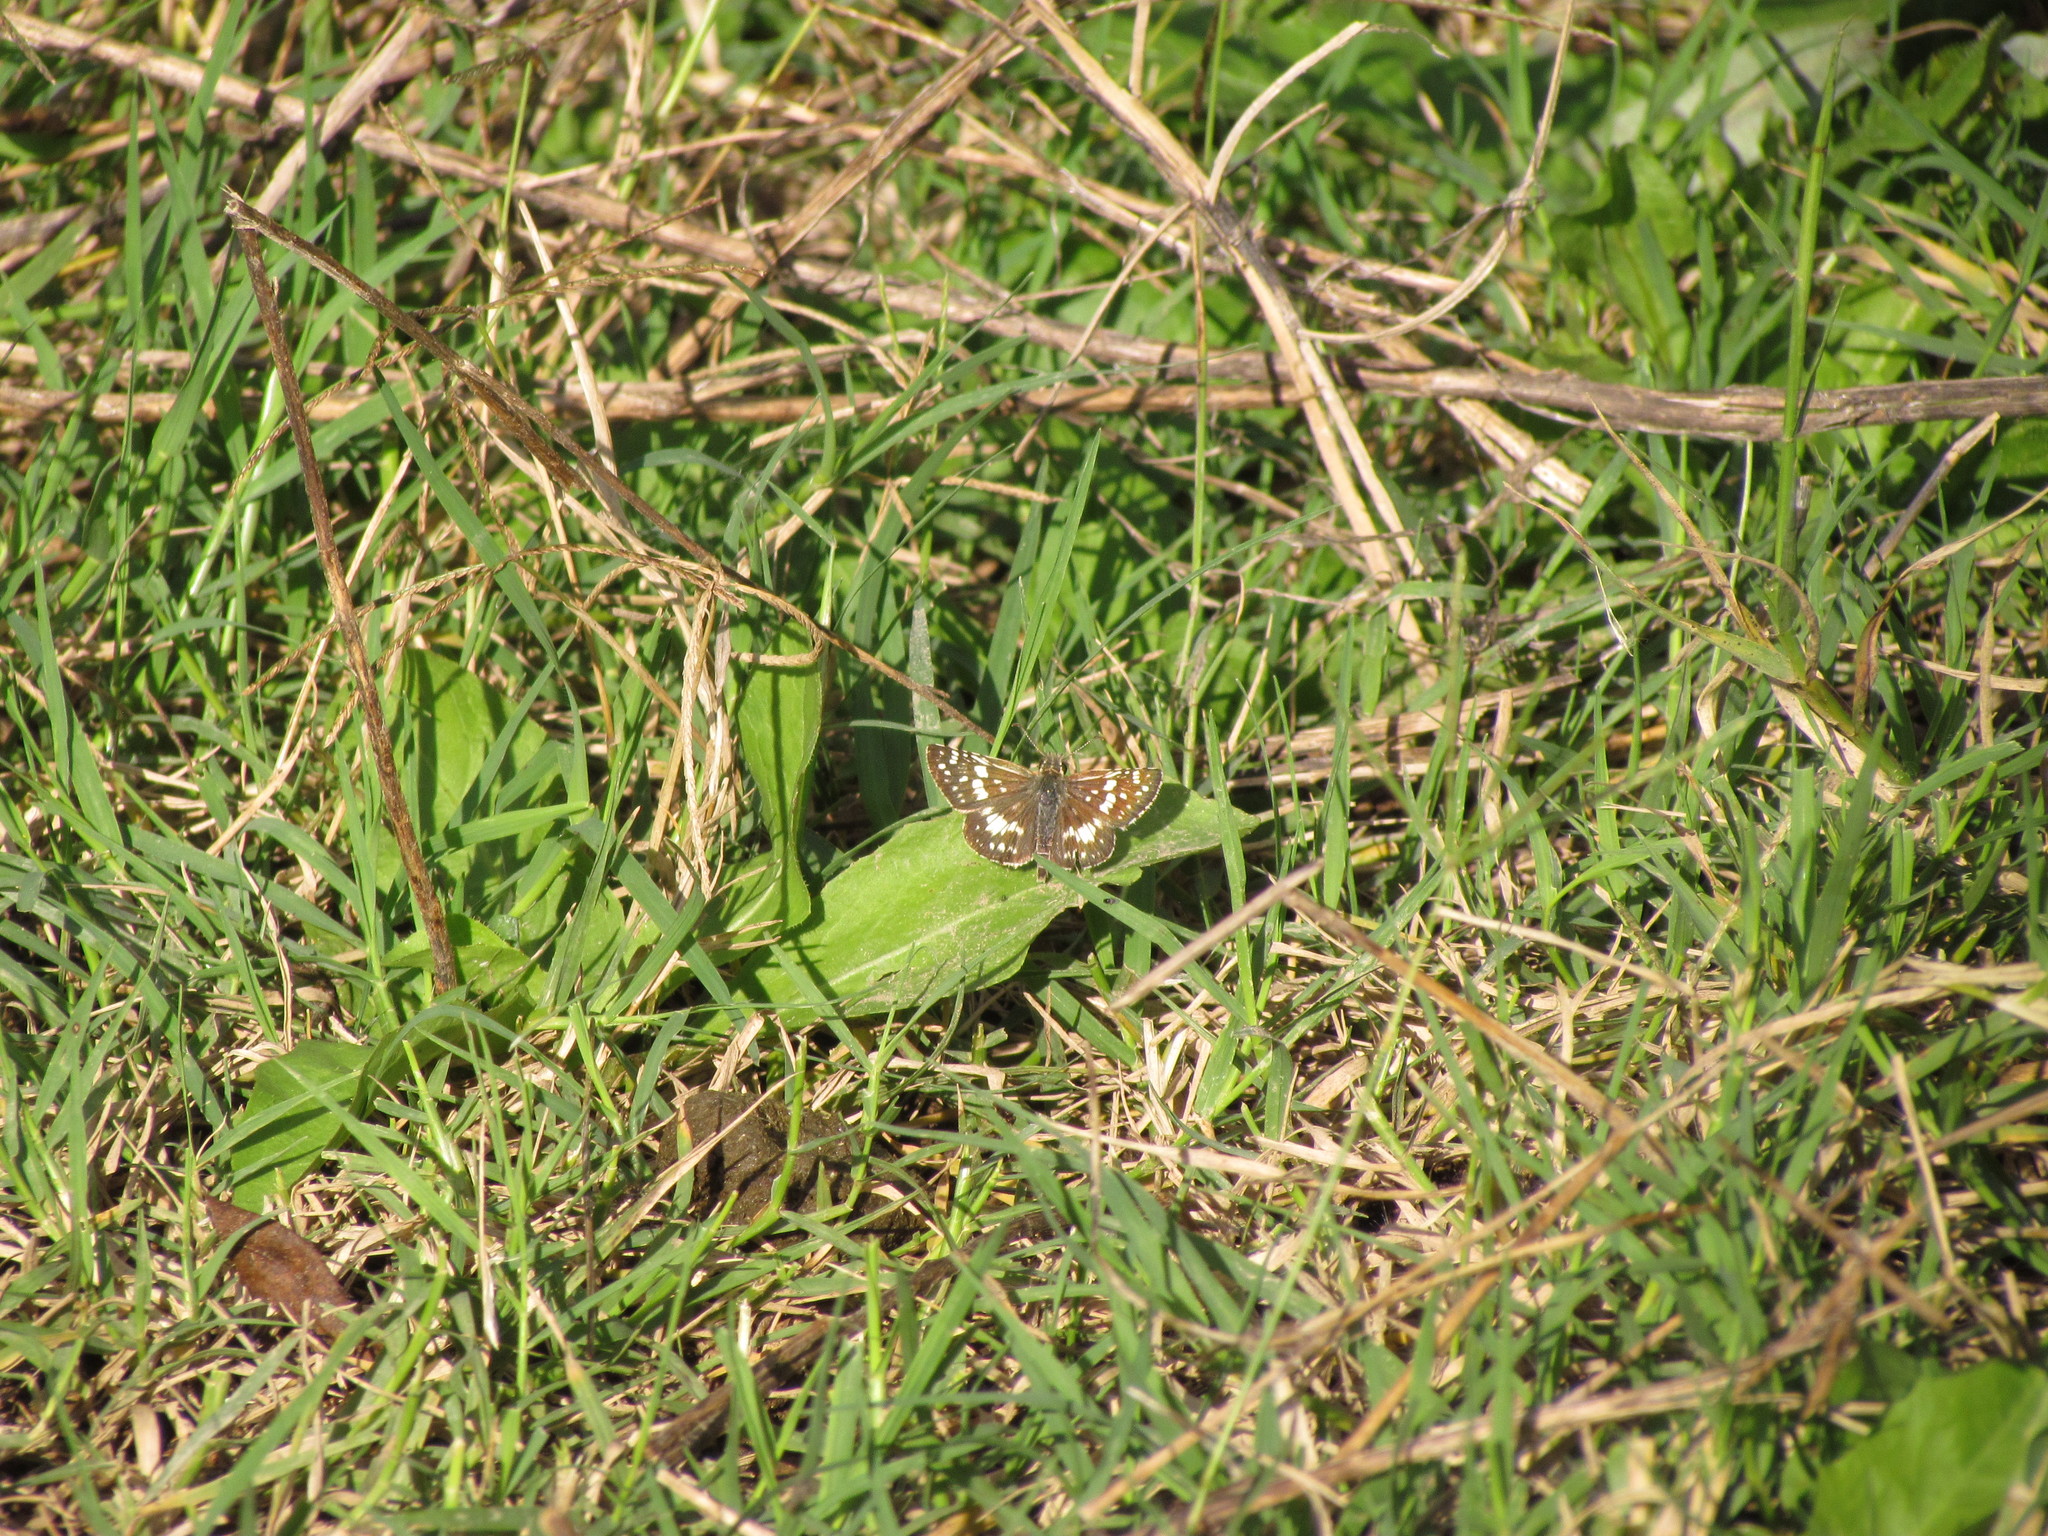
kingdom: Animalia
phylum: Arthropoda
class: Insecta
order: Lepidoptera
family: Hesperiidae
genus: Burnsius
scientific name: Burnsius orcynoides
